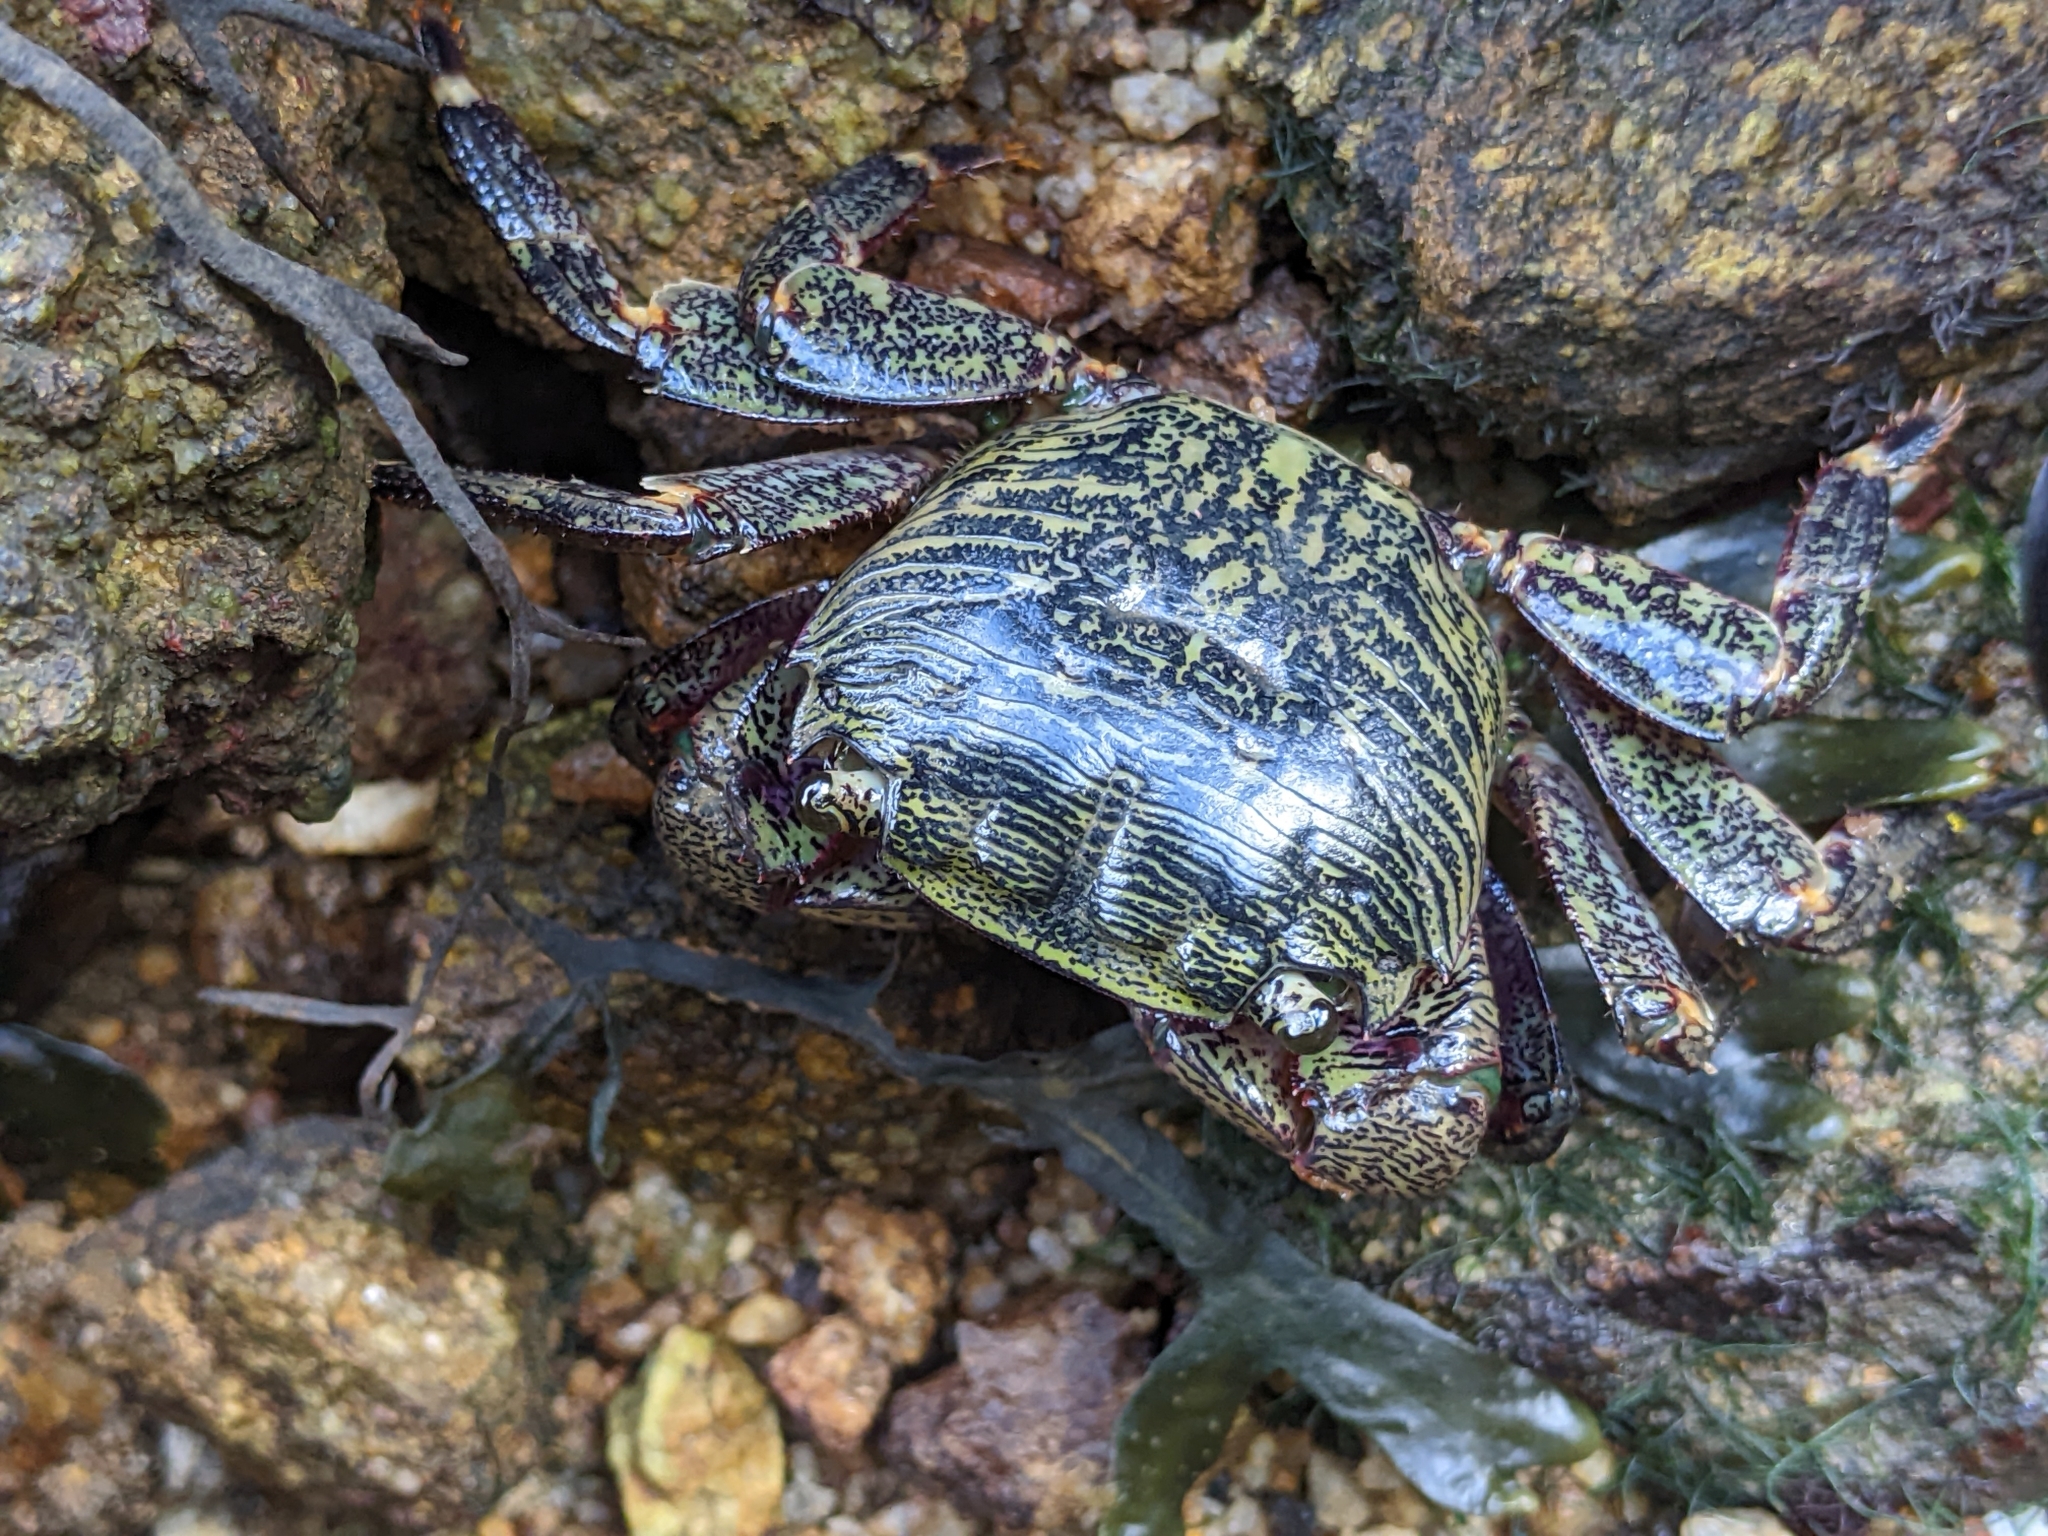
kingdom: Animalia
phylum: Arthropoda
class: Malacostraca
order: Decapoda
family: Grapsidae
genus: Pachygrapsus
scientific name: Pachygrapsus crassipes
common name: Striped shore crab
